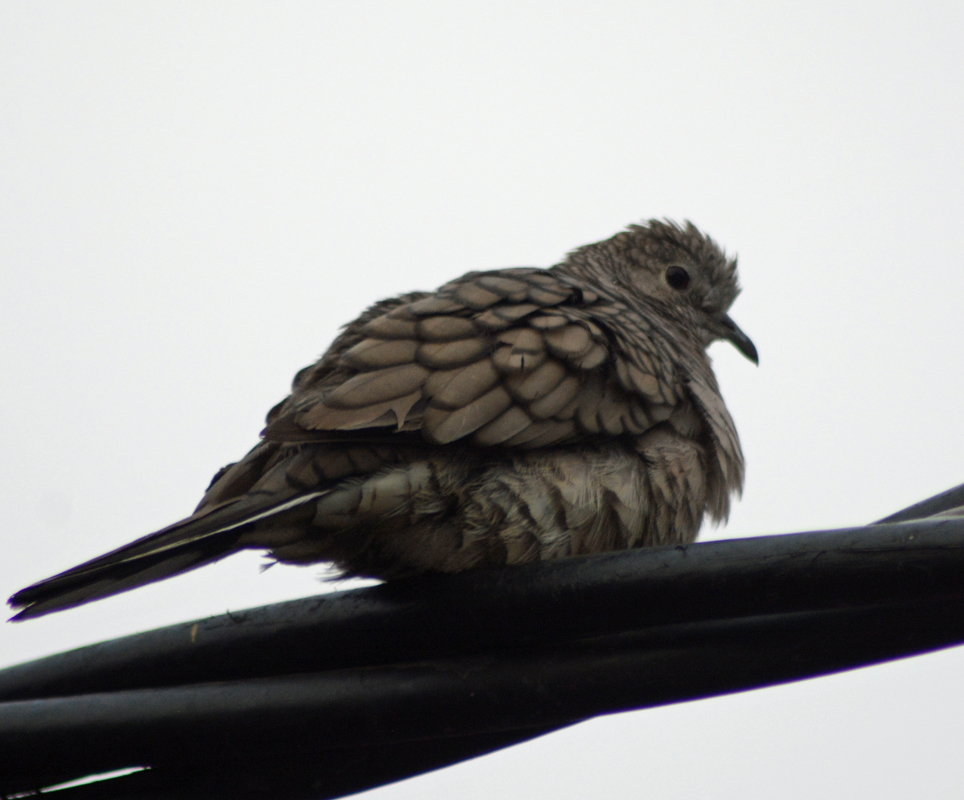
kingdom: Animalia
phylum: Chordata
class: Aves
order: Columbiformes
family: Columbidae
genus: Columbina
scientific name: Columbina inca
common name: Inca dove
